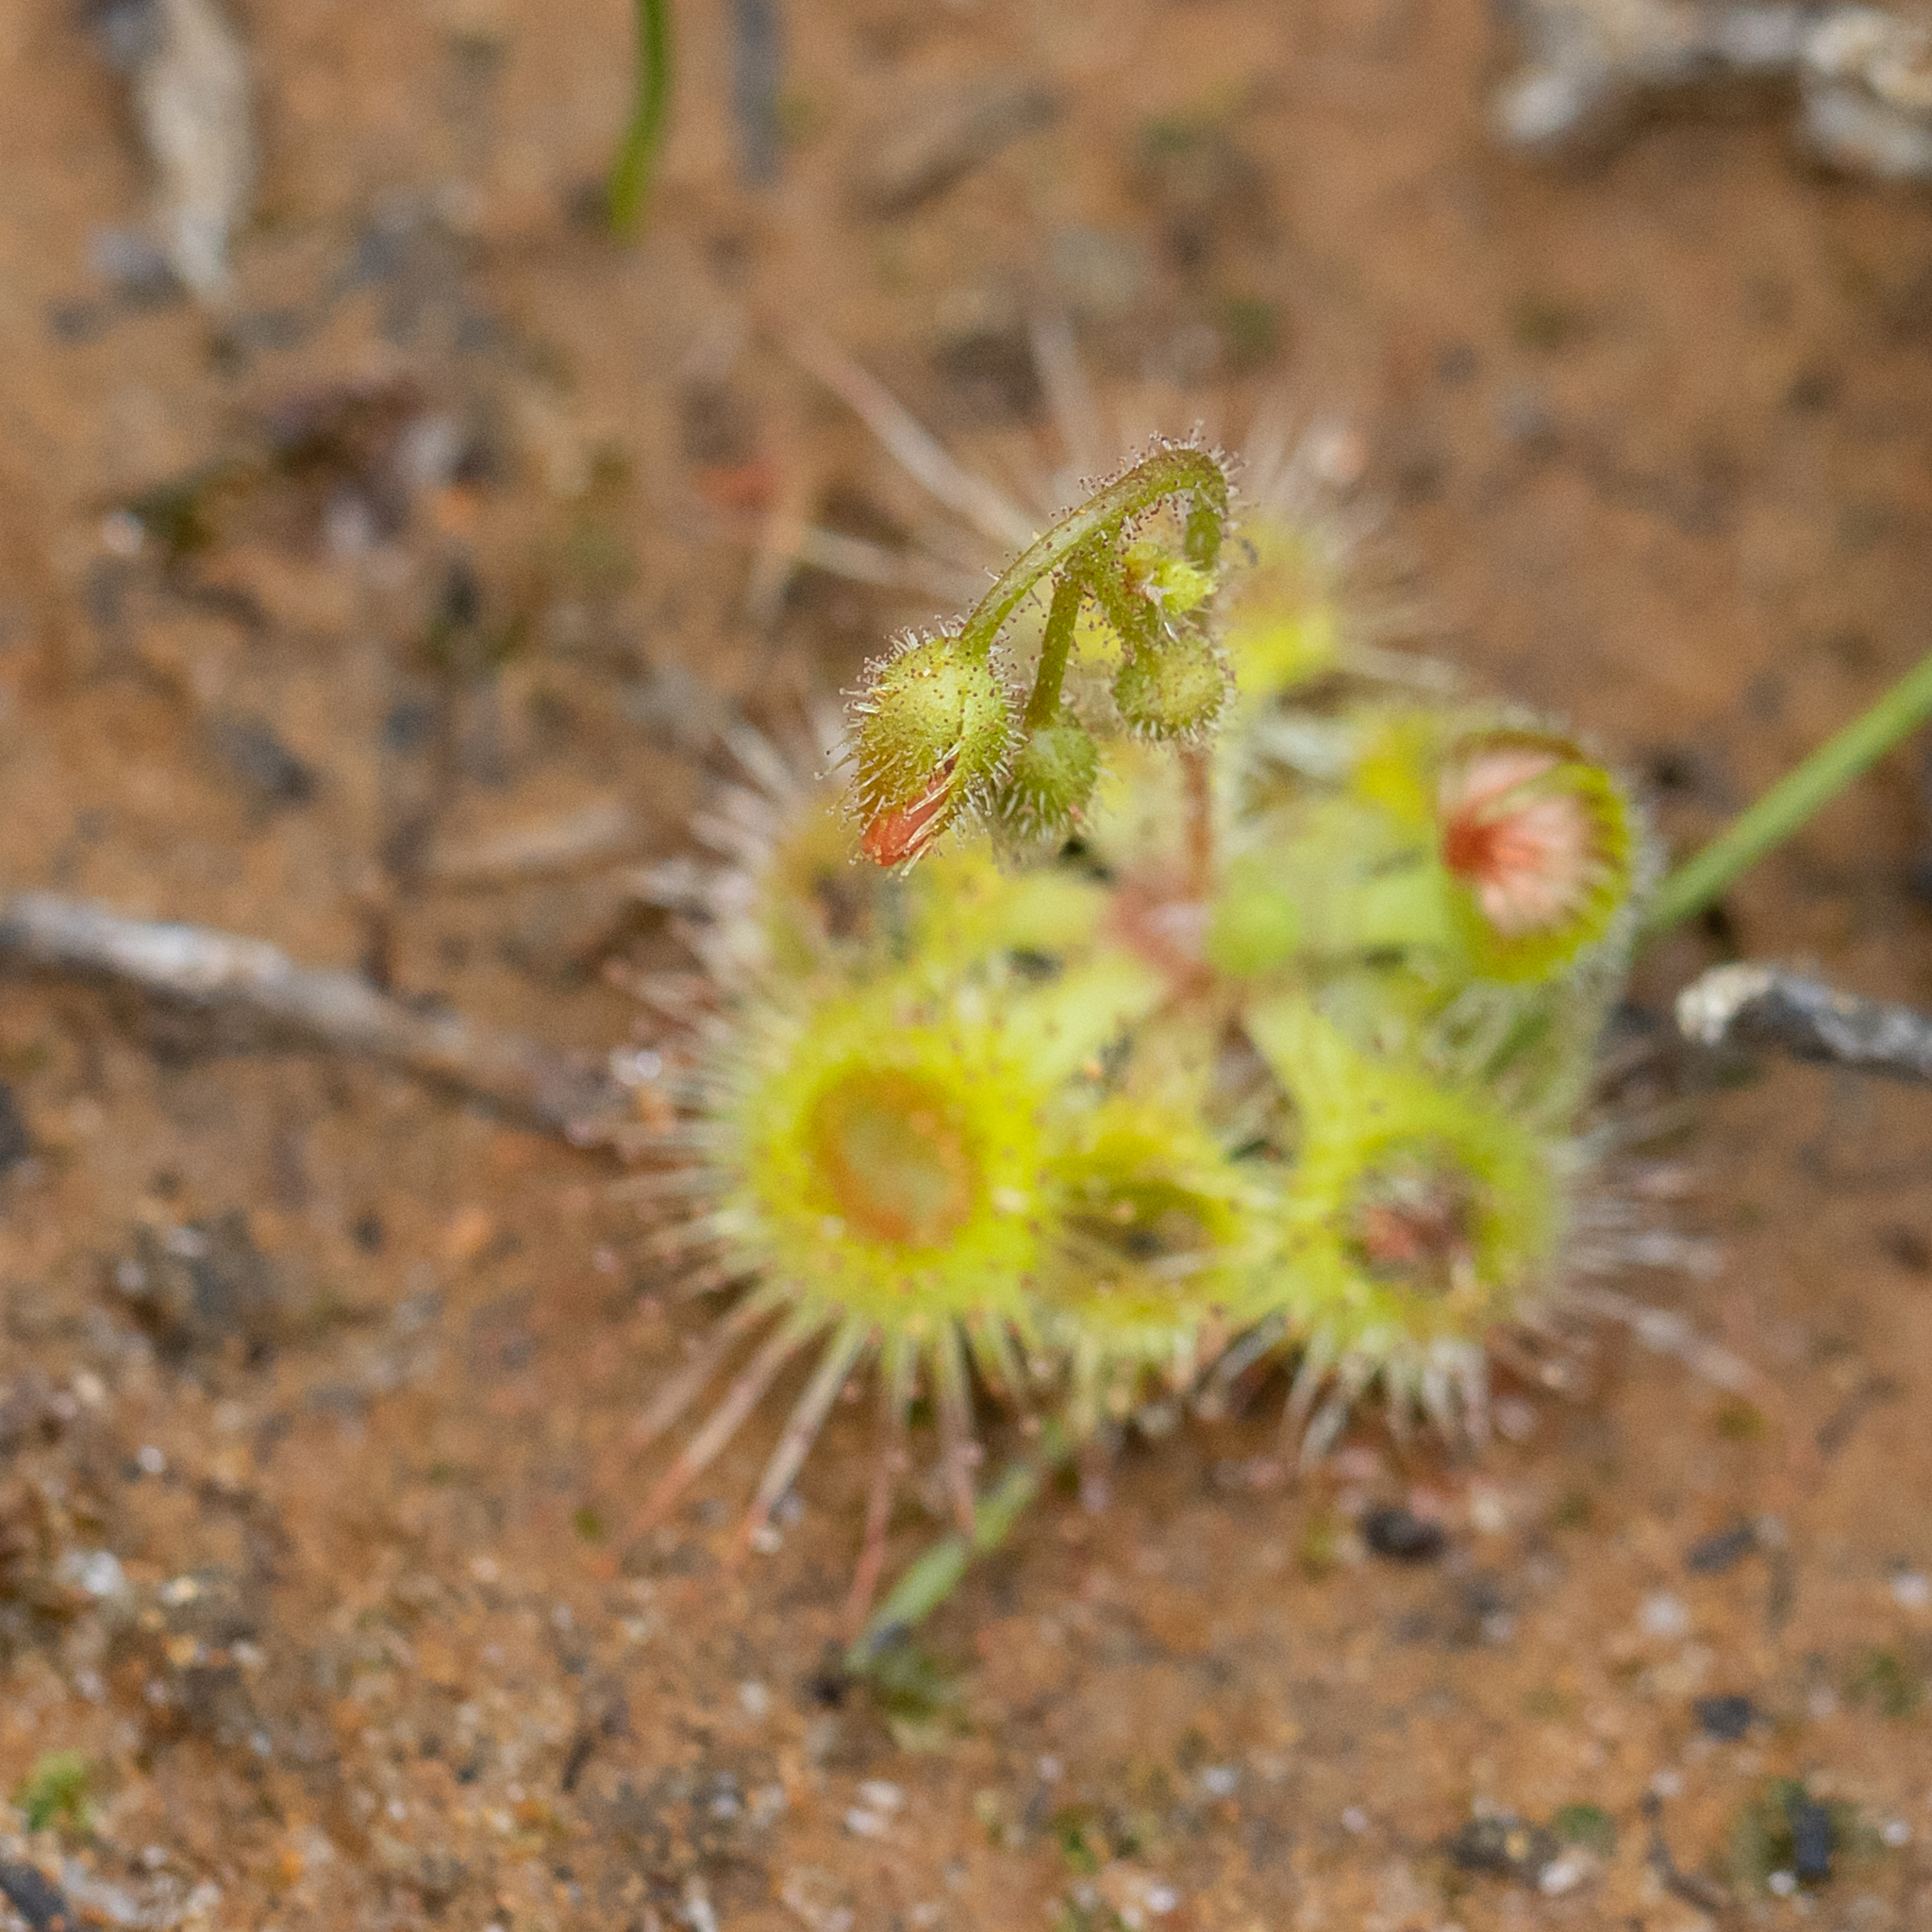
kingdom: Plantae
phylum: Tracheophyta
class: Magnoliopsida
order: Caryophyllales
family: Droseraceae
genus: Drosera
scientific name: Drosera glanduligera
